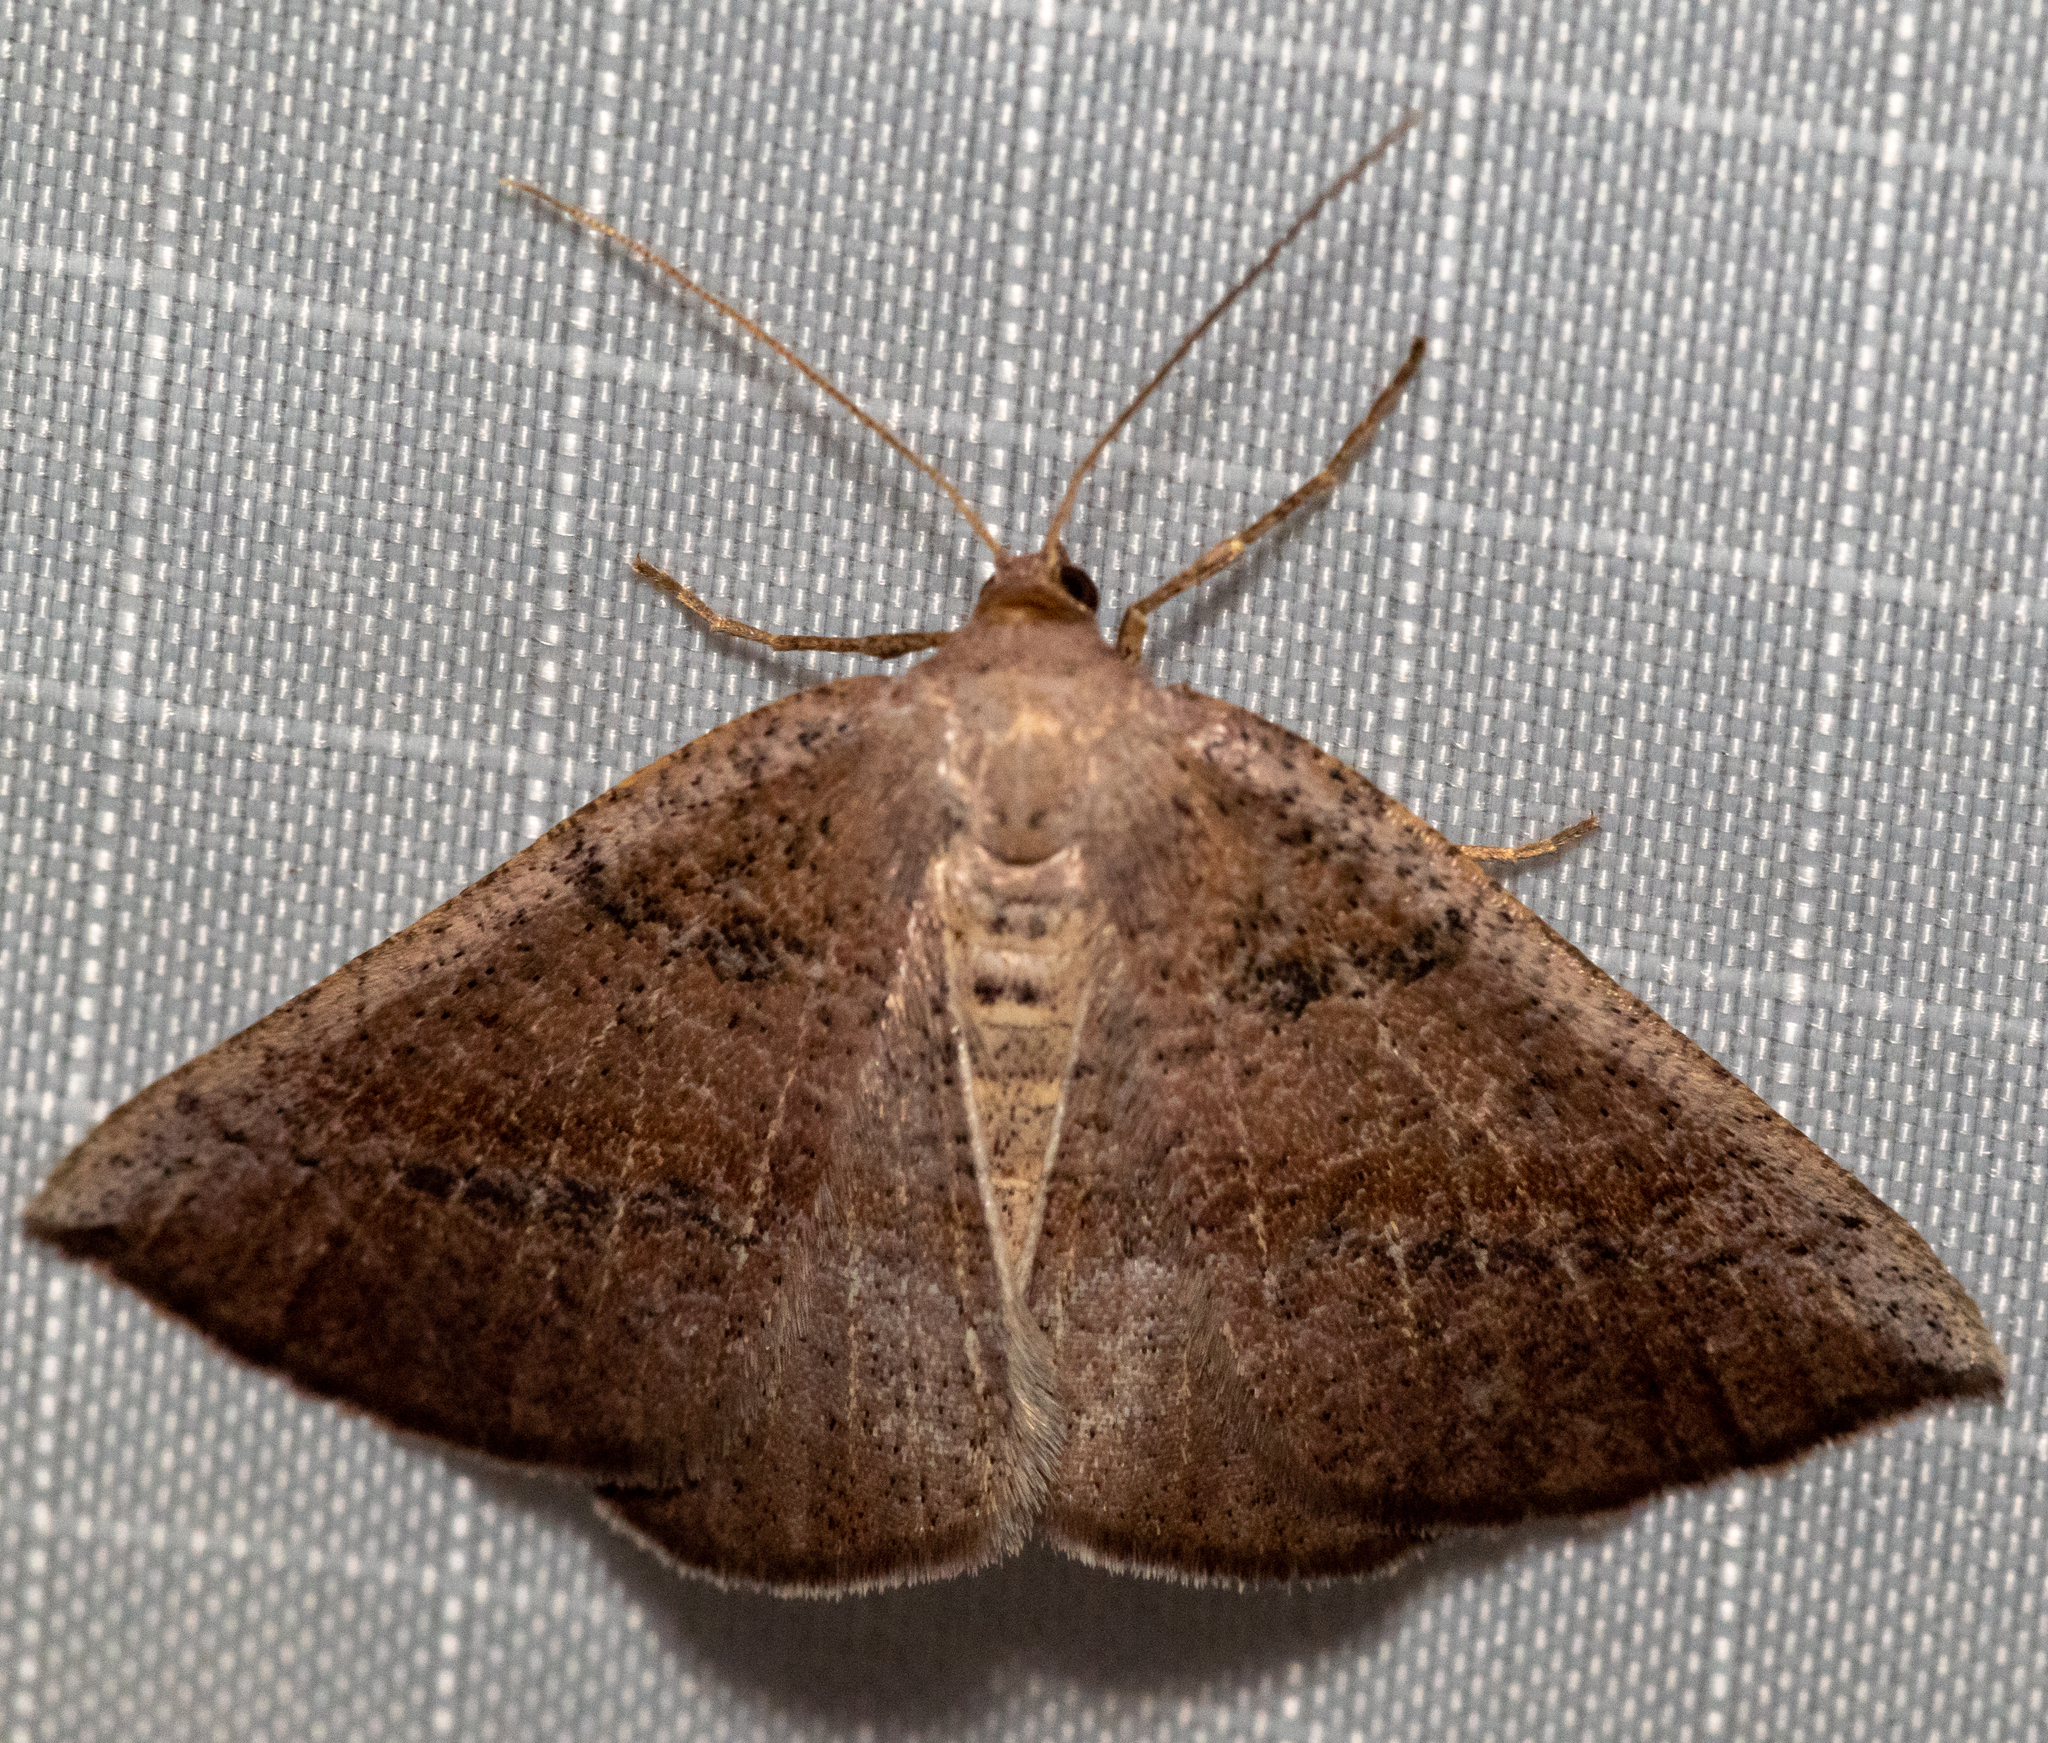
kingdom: Animalia
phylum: Arthropoda
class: Insecta
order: Lepidoptera
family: Geometridae
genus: Tacparia
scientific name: Tacparia atropunctata
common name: Northern pale alder
